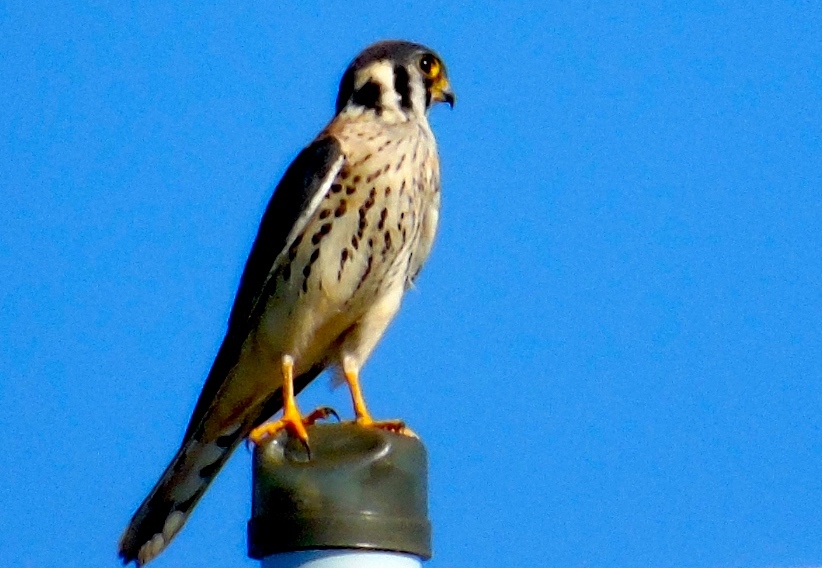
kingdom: Animalia
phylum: Chordata
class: Aves
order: Falconiformes
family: Falconidae
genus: Falco
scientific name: Falco sparverius
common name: American kestrel
